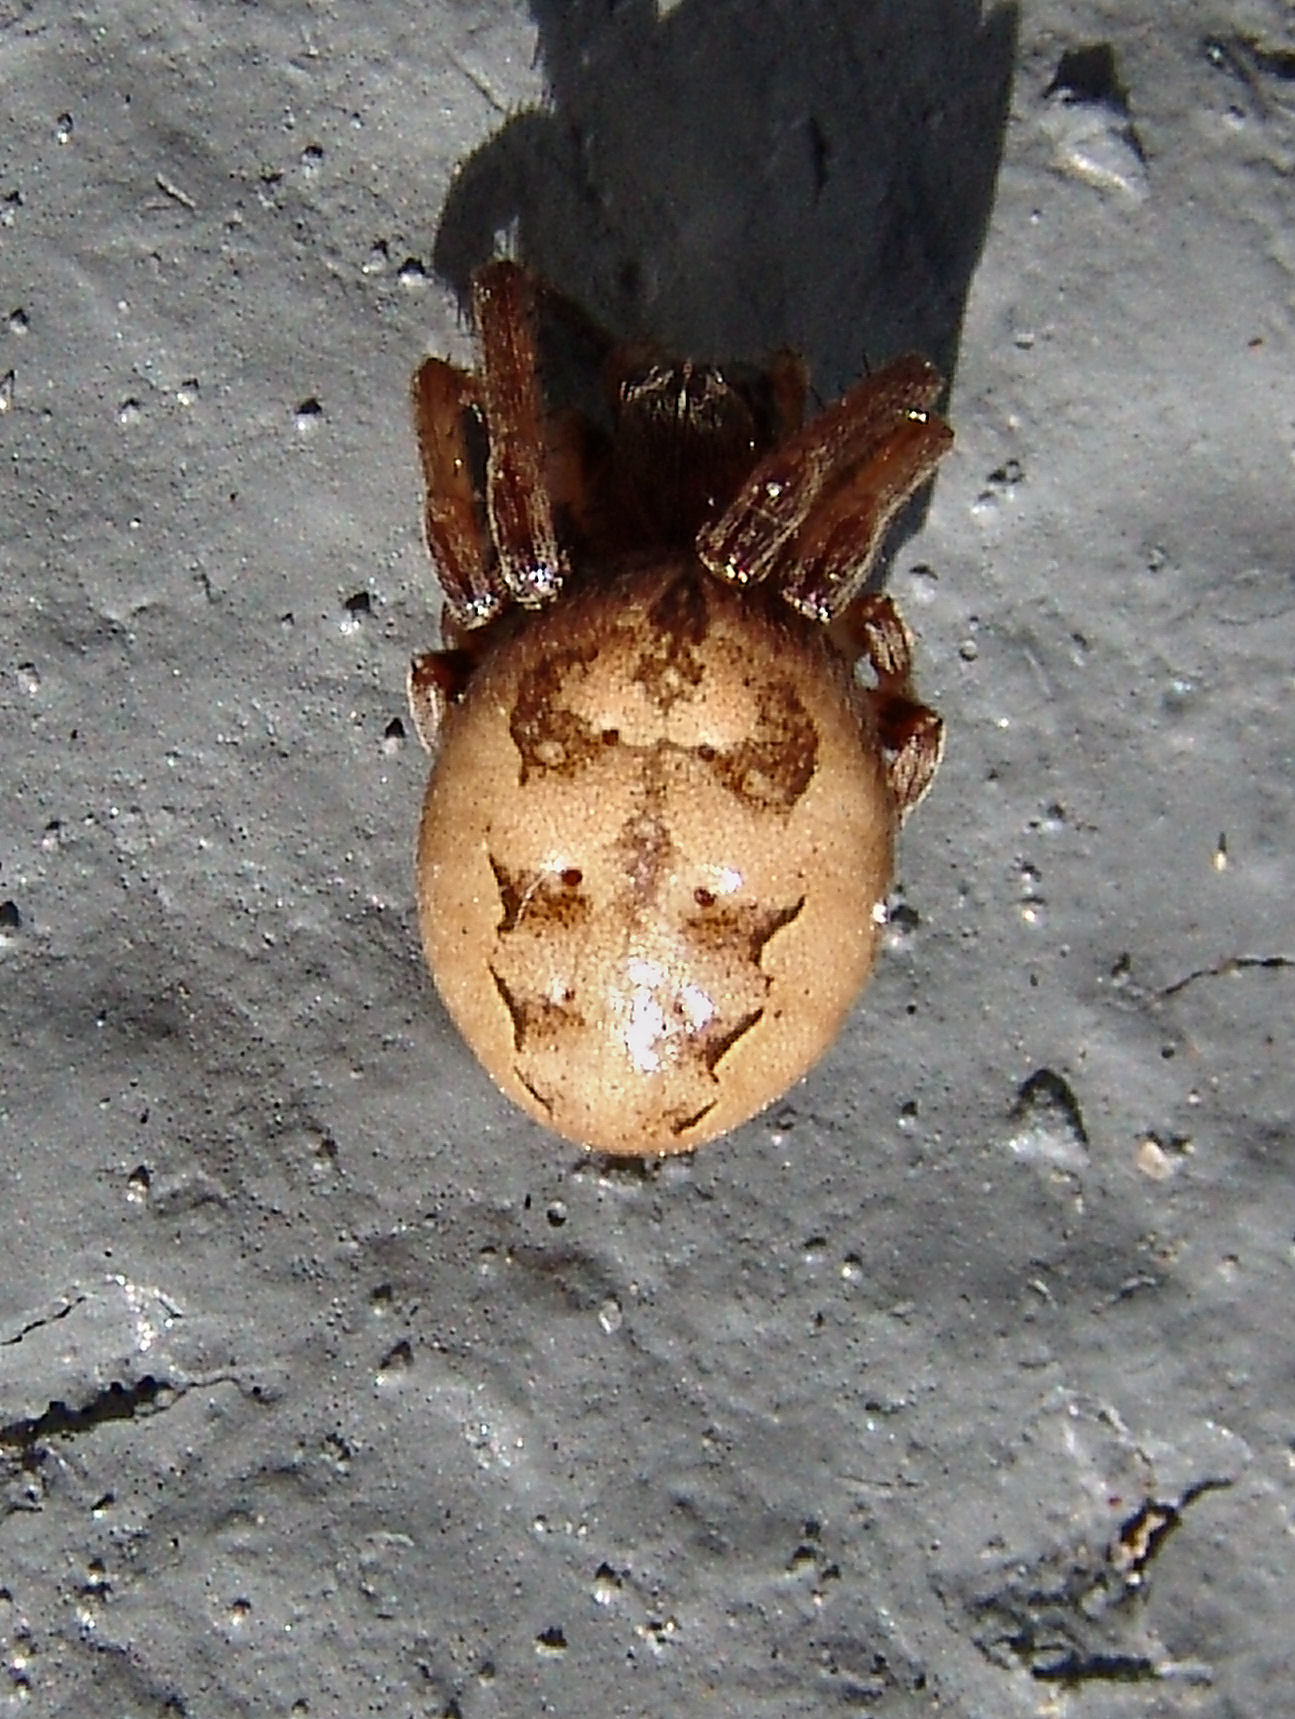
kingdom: Animalia
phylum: Arthropoda
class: Arachnida
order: Araneae
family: Araneidae
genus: Larinioides
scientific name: Larinioides cornutus
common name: Furrow orbweaver
